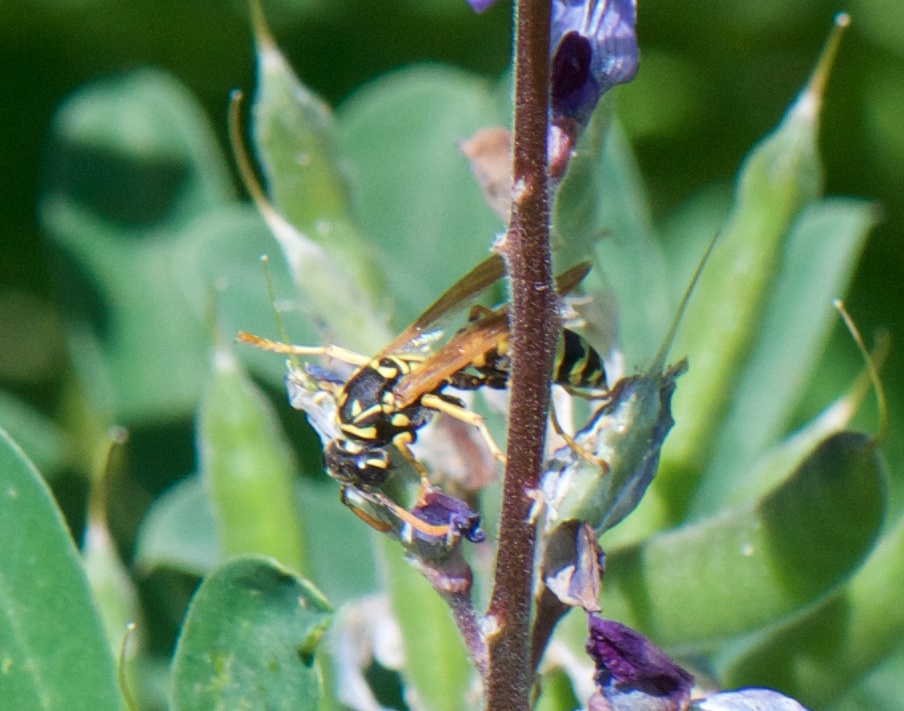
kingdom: Animalia
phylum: Arthropoda
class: Insecta
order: Hymenoptera
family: Eumenidae
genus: Polistes
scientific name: Polistes dominula
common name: Paper wasp
